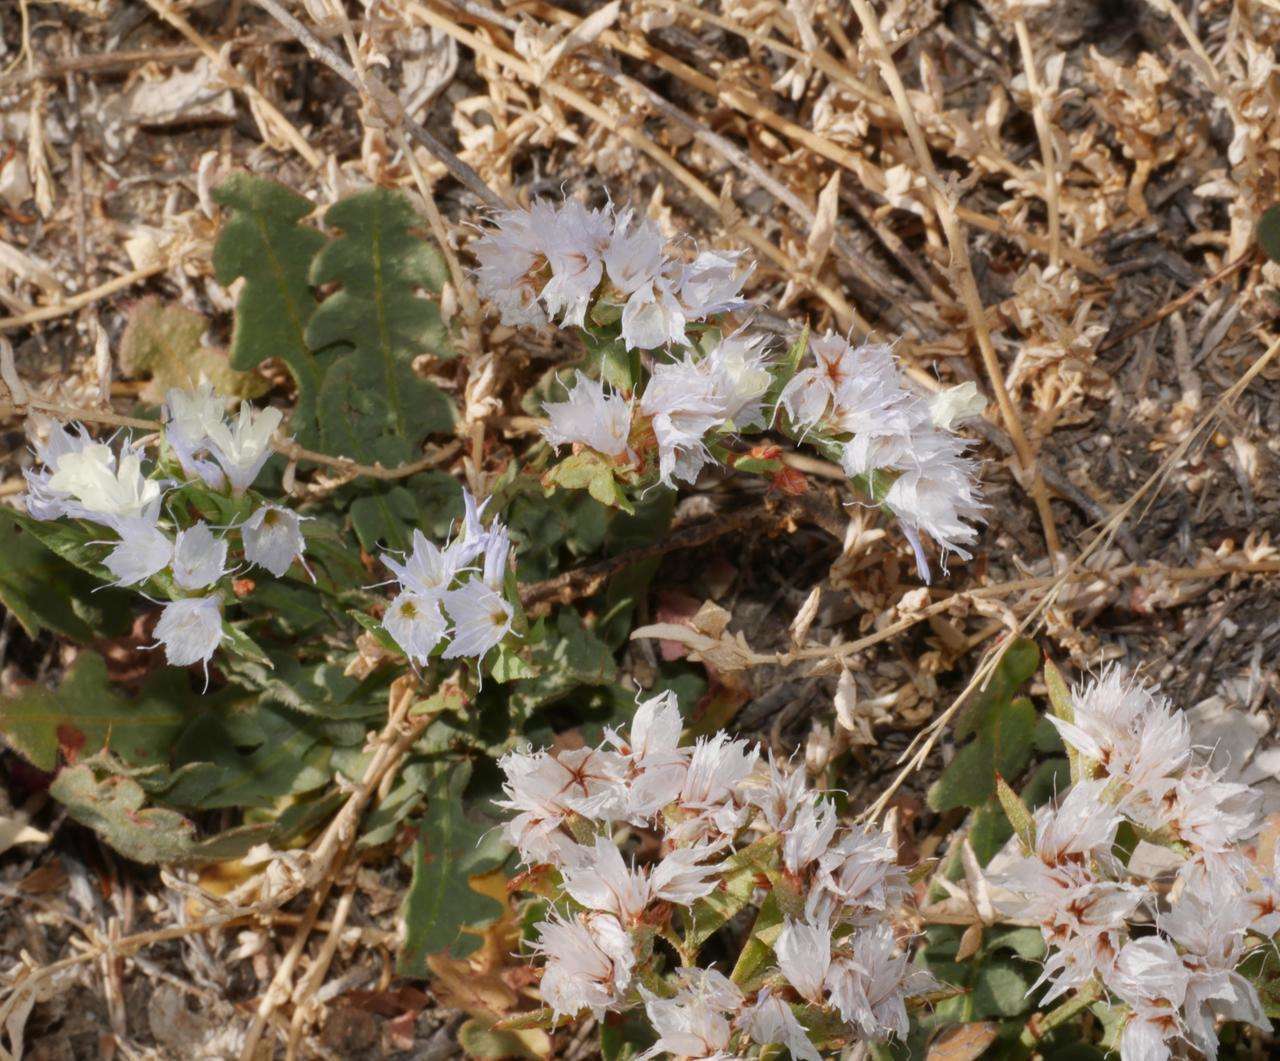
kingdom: Plantae
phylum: Tracheophyta
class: Magnoliopsida
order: Caryophyllales
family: Plumbaginaceae
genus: Limonium
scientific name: Limonium lobatum
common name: Winged sea-lavender
